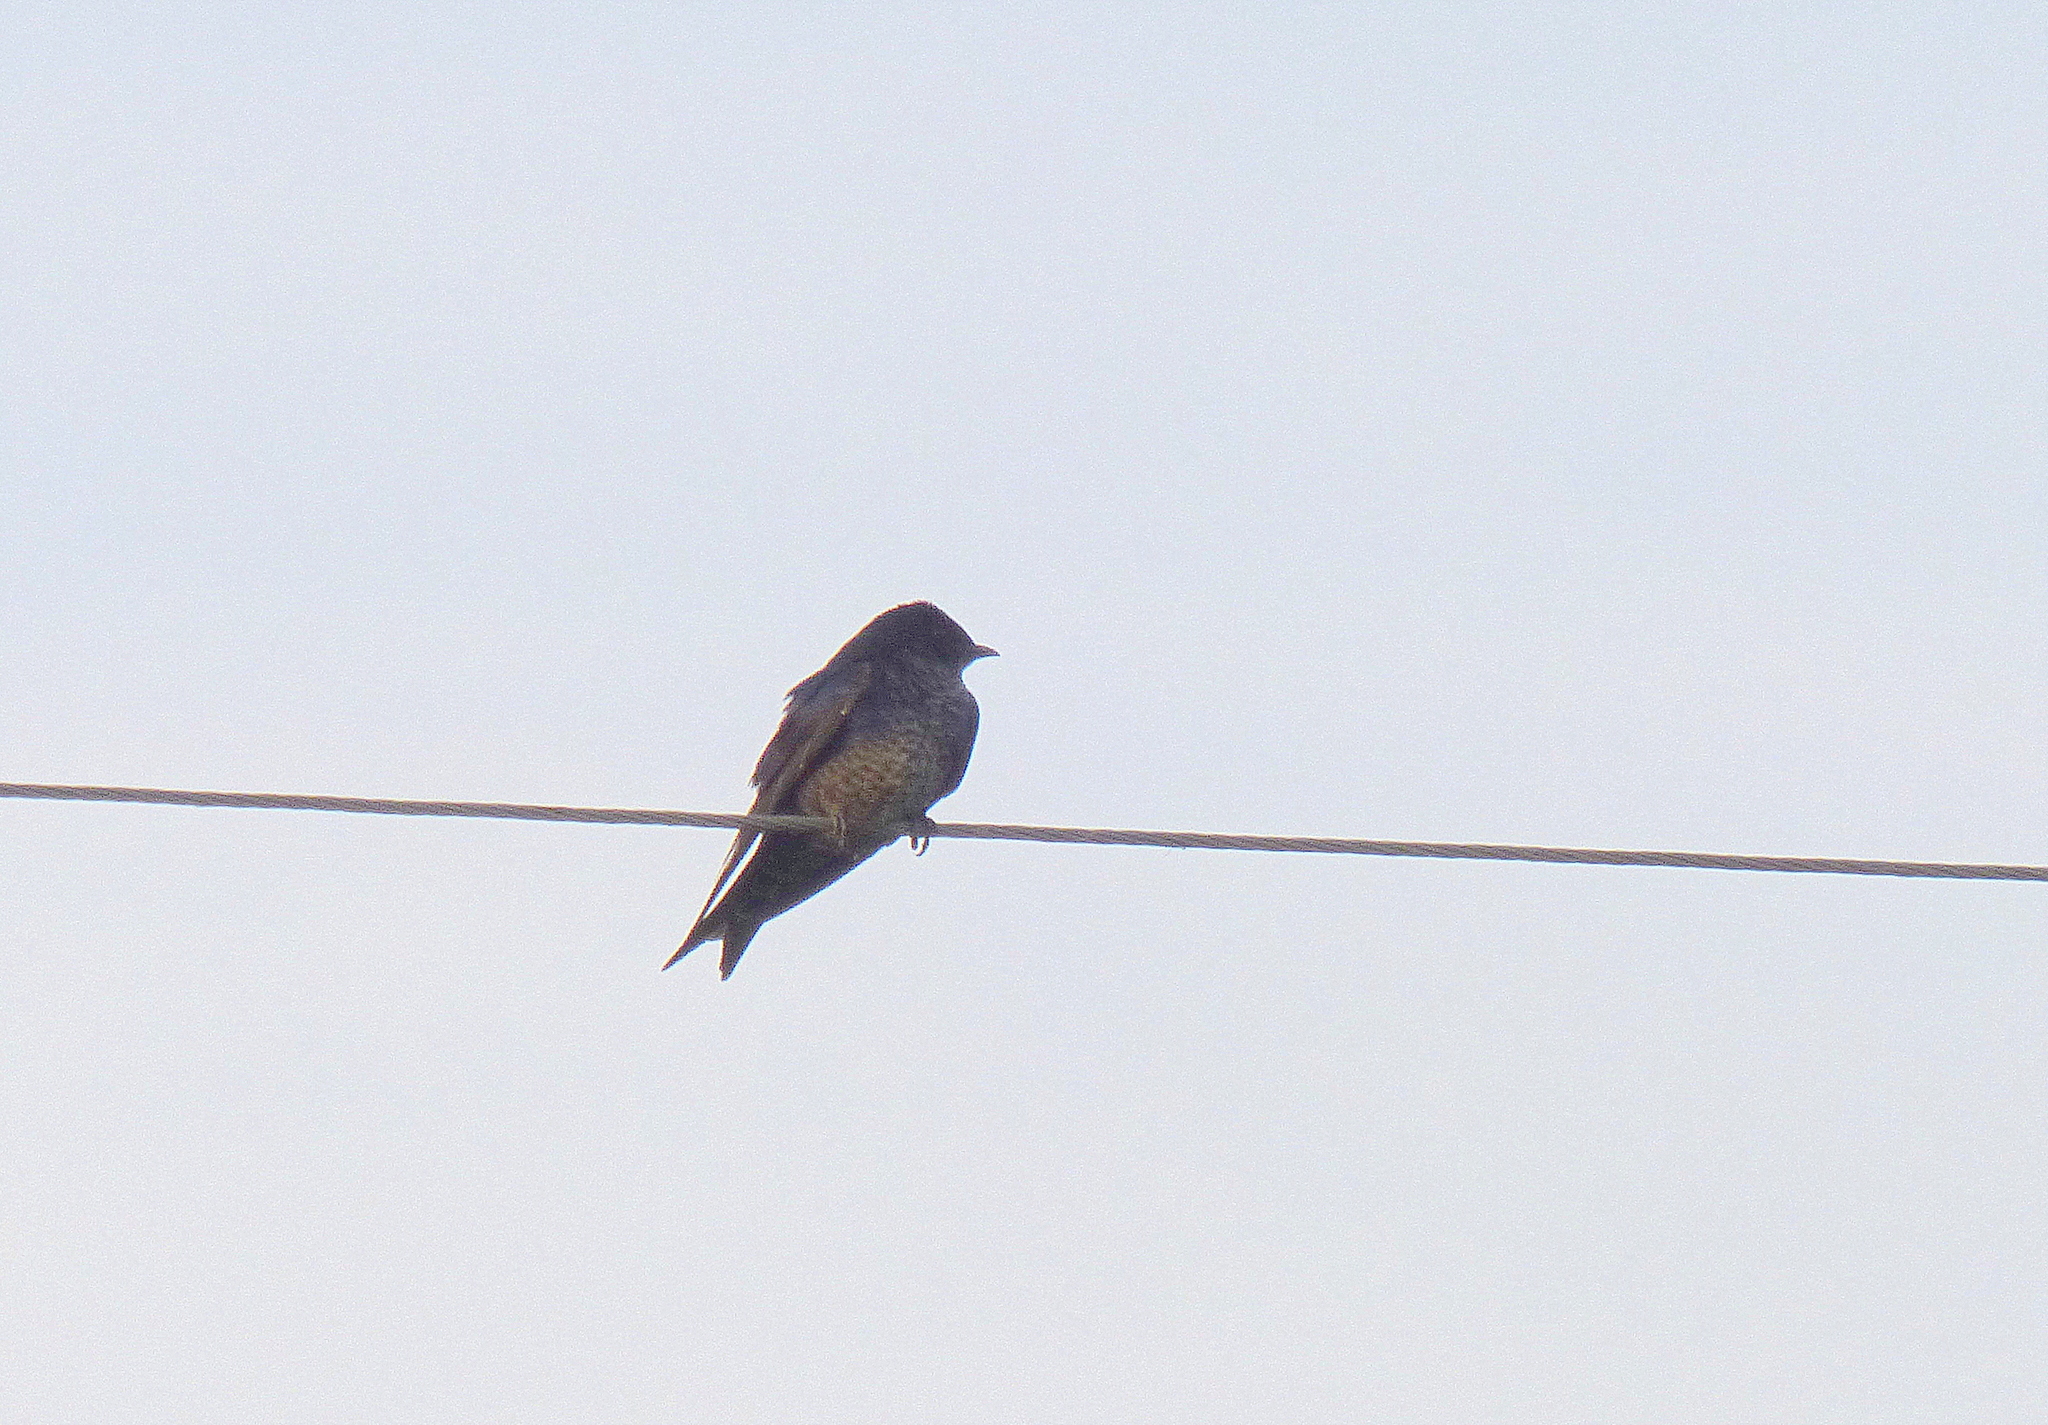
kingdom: Animalia
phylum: Chordata
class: Aves
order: Passeriformes
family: Hirundinidae
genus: Progne
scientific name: Progne elegans
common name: Southern martin
